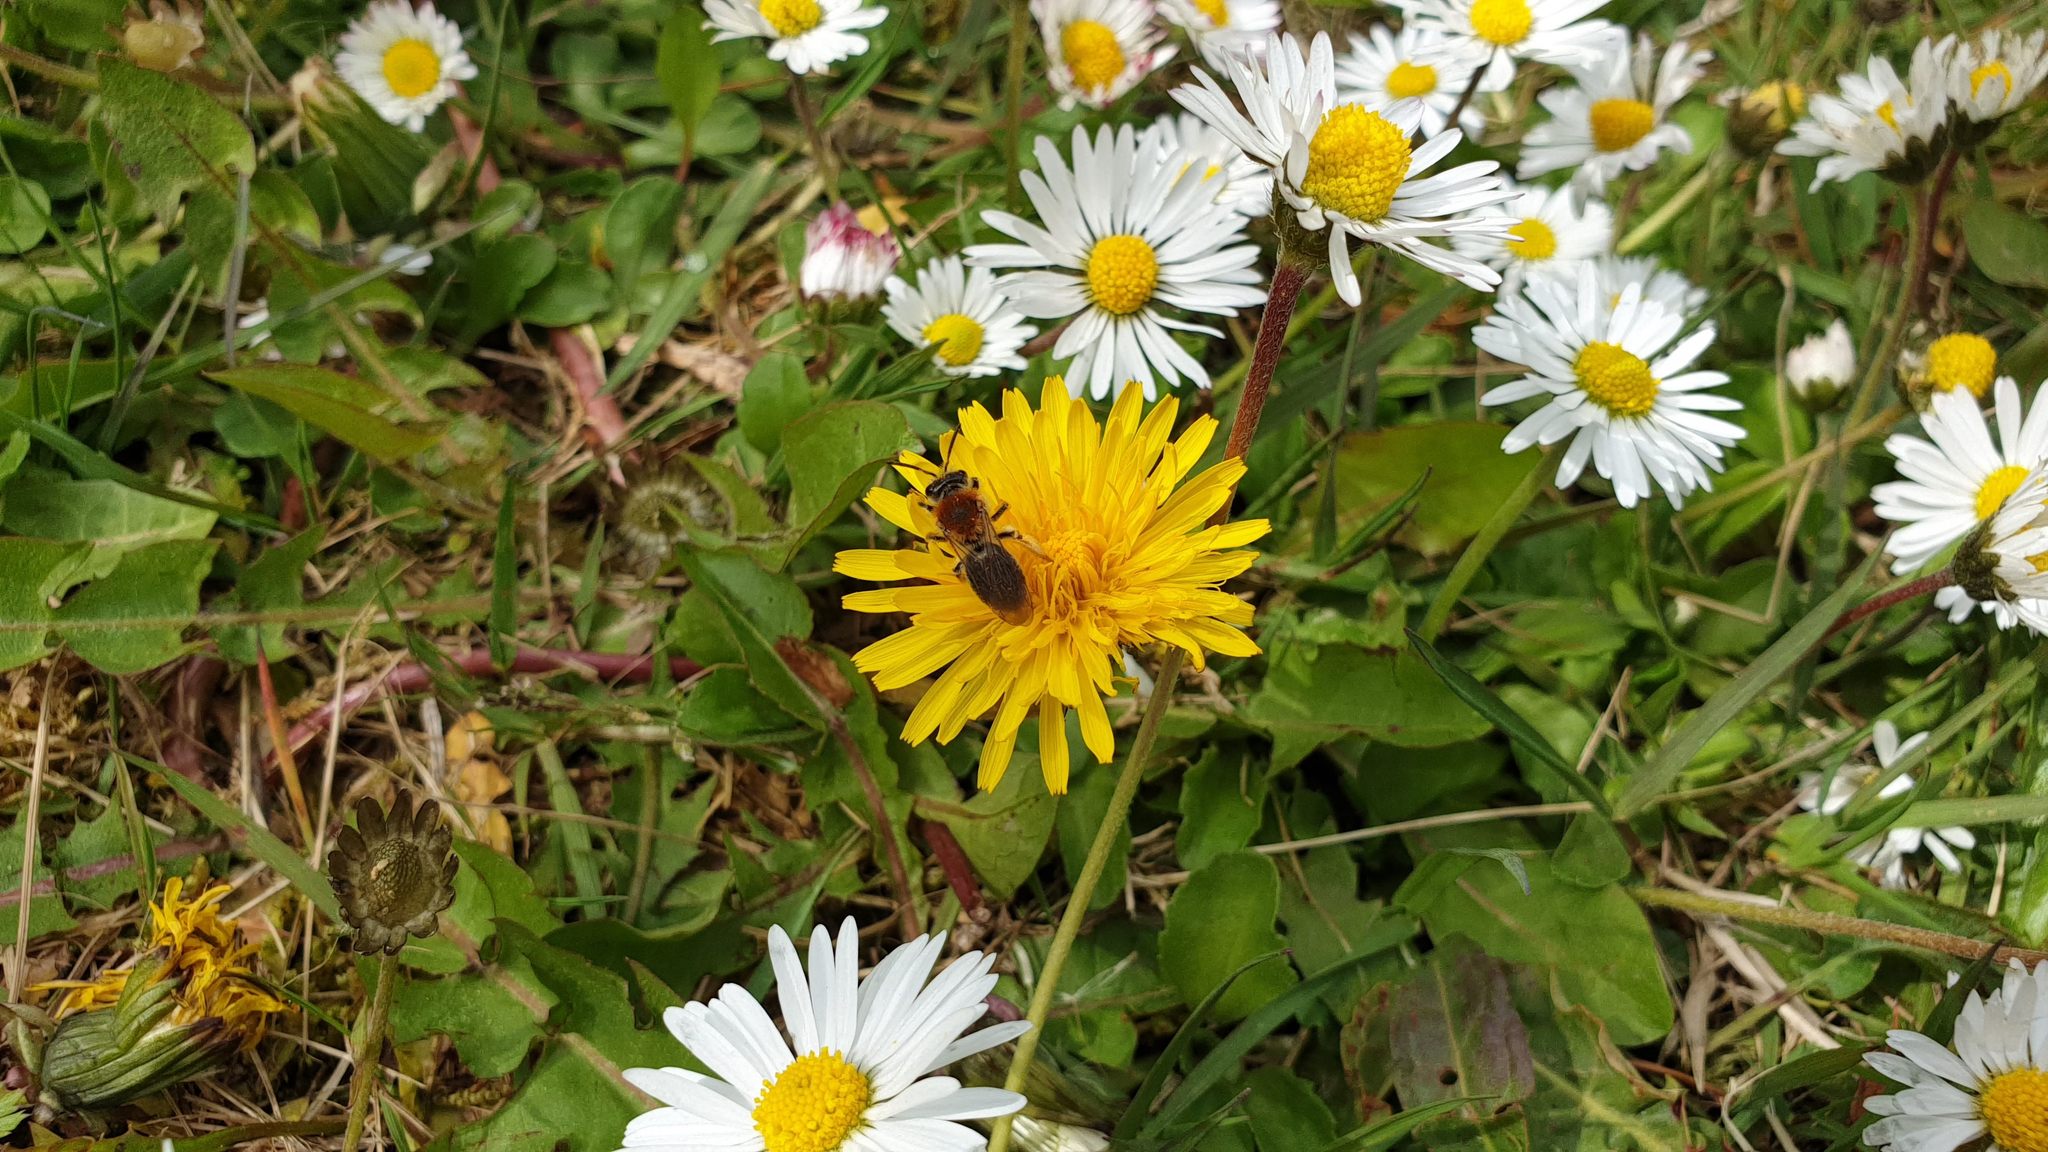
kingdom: Animalia
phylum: Arthropoda
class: Insecta
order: Hymenoptera
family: Andrenidae
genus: Andrena
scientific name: Andrena haemorrhoa
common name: Early mining bee
